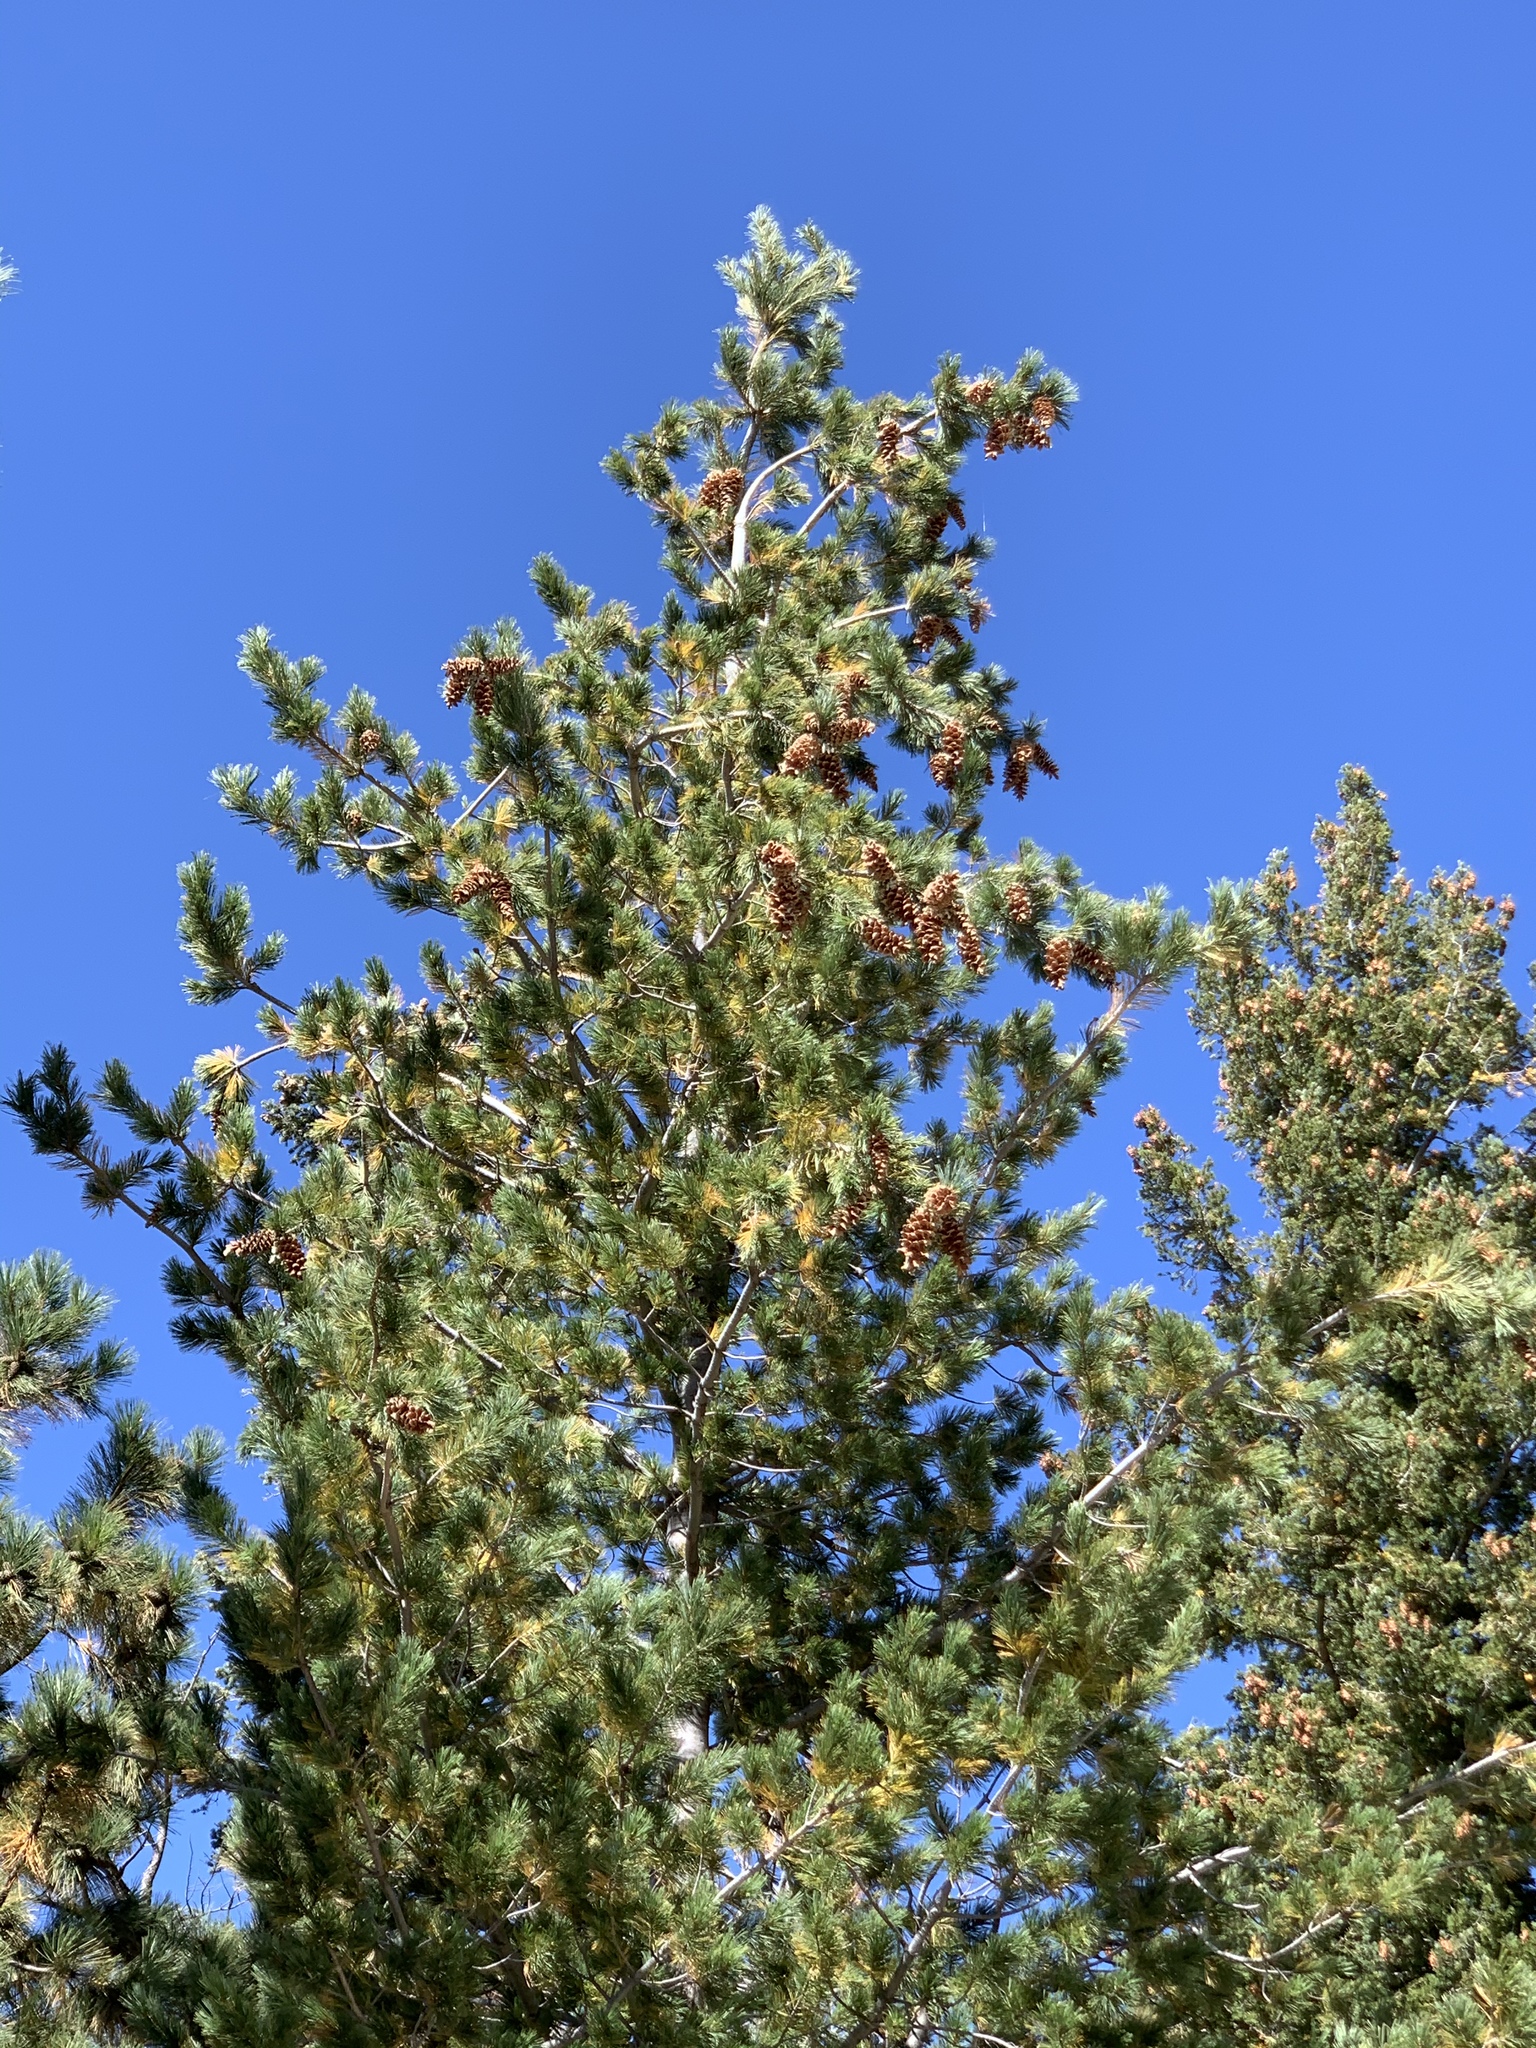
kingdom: Plantae
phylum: Tracheophyta
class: Pinopsida
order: Pinales
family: Pinaceae
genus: Pinus
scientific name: Pinus strobiformis
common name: Southwestern white pine
